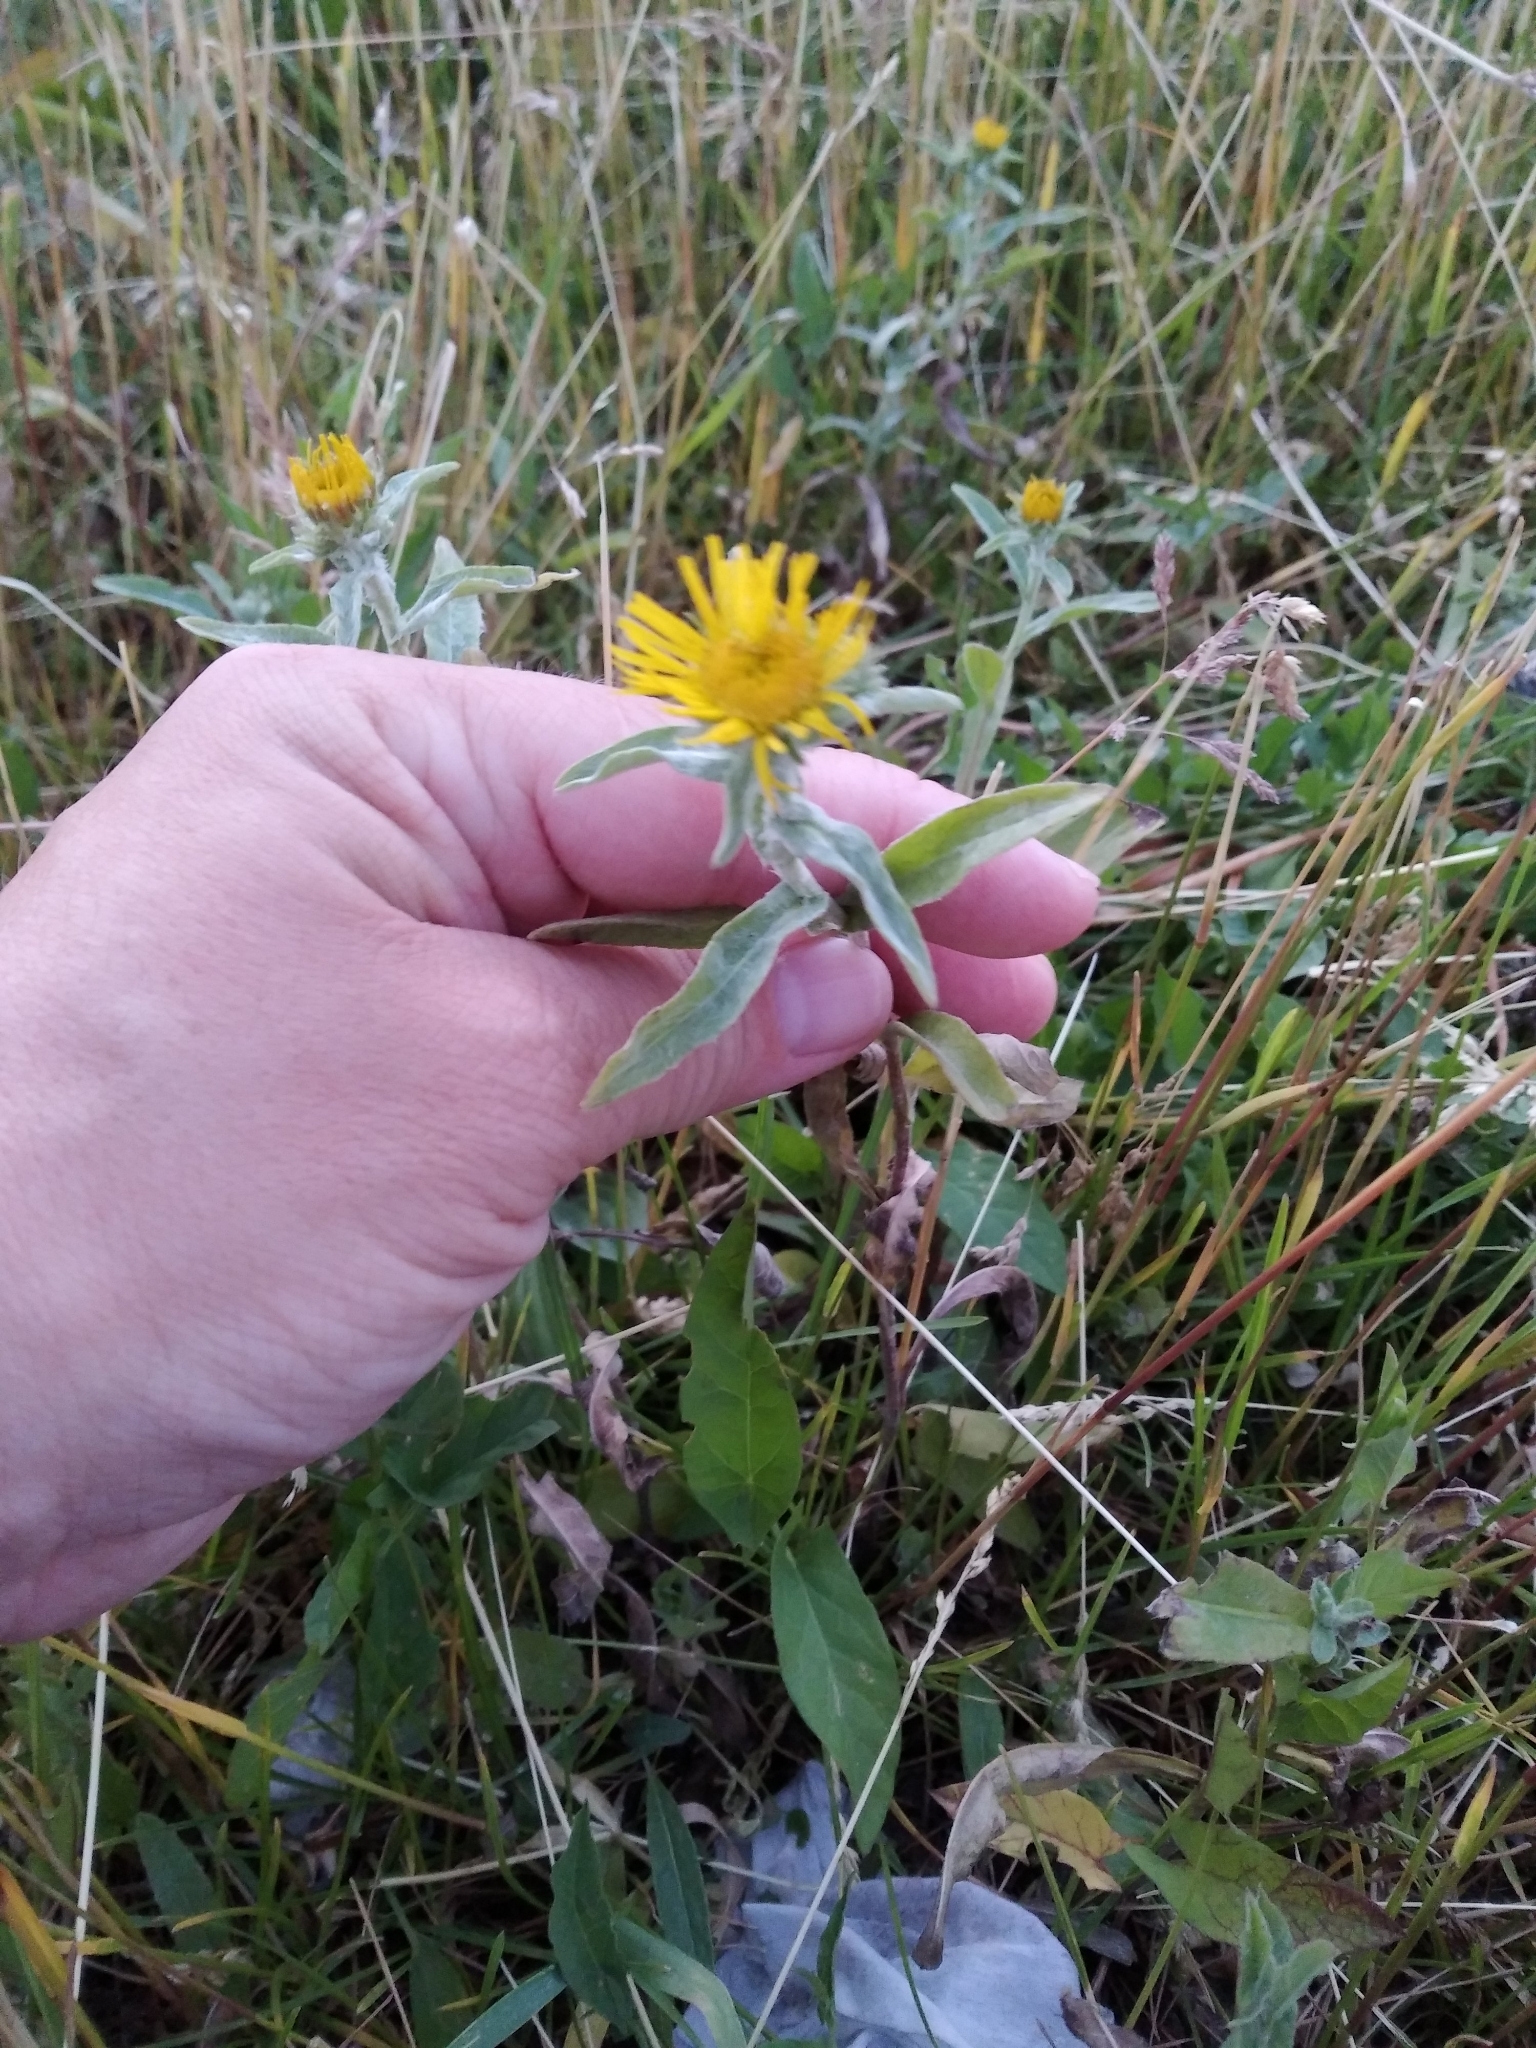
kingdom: Plantae
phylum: Tracheophyta
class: Magnoliopsida
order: Asterales
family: Asteraceae
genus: Pentanema
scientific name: Pentanema britannicum
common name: British elecampane
